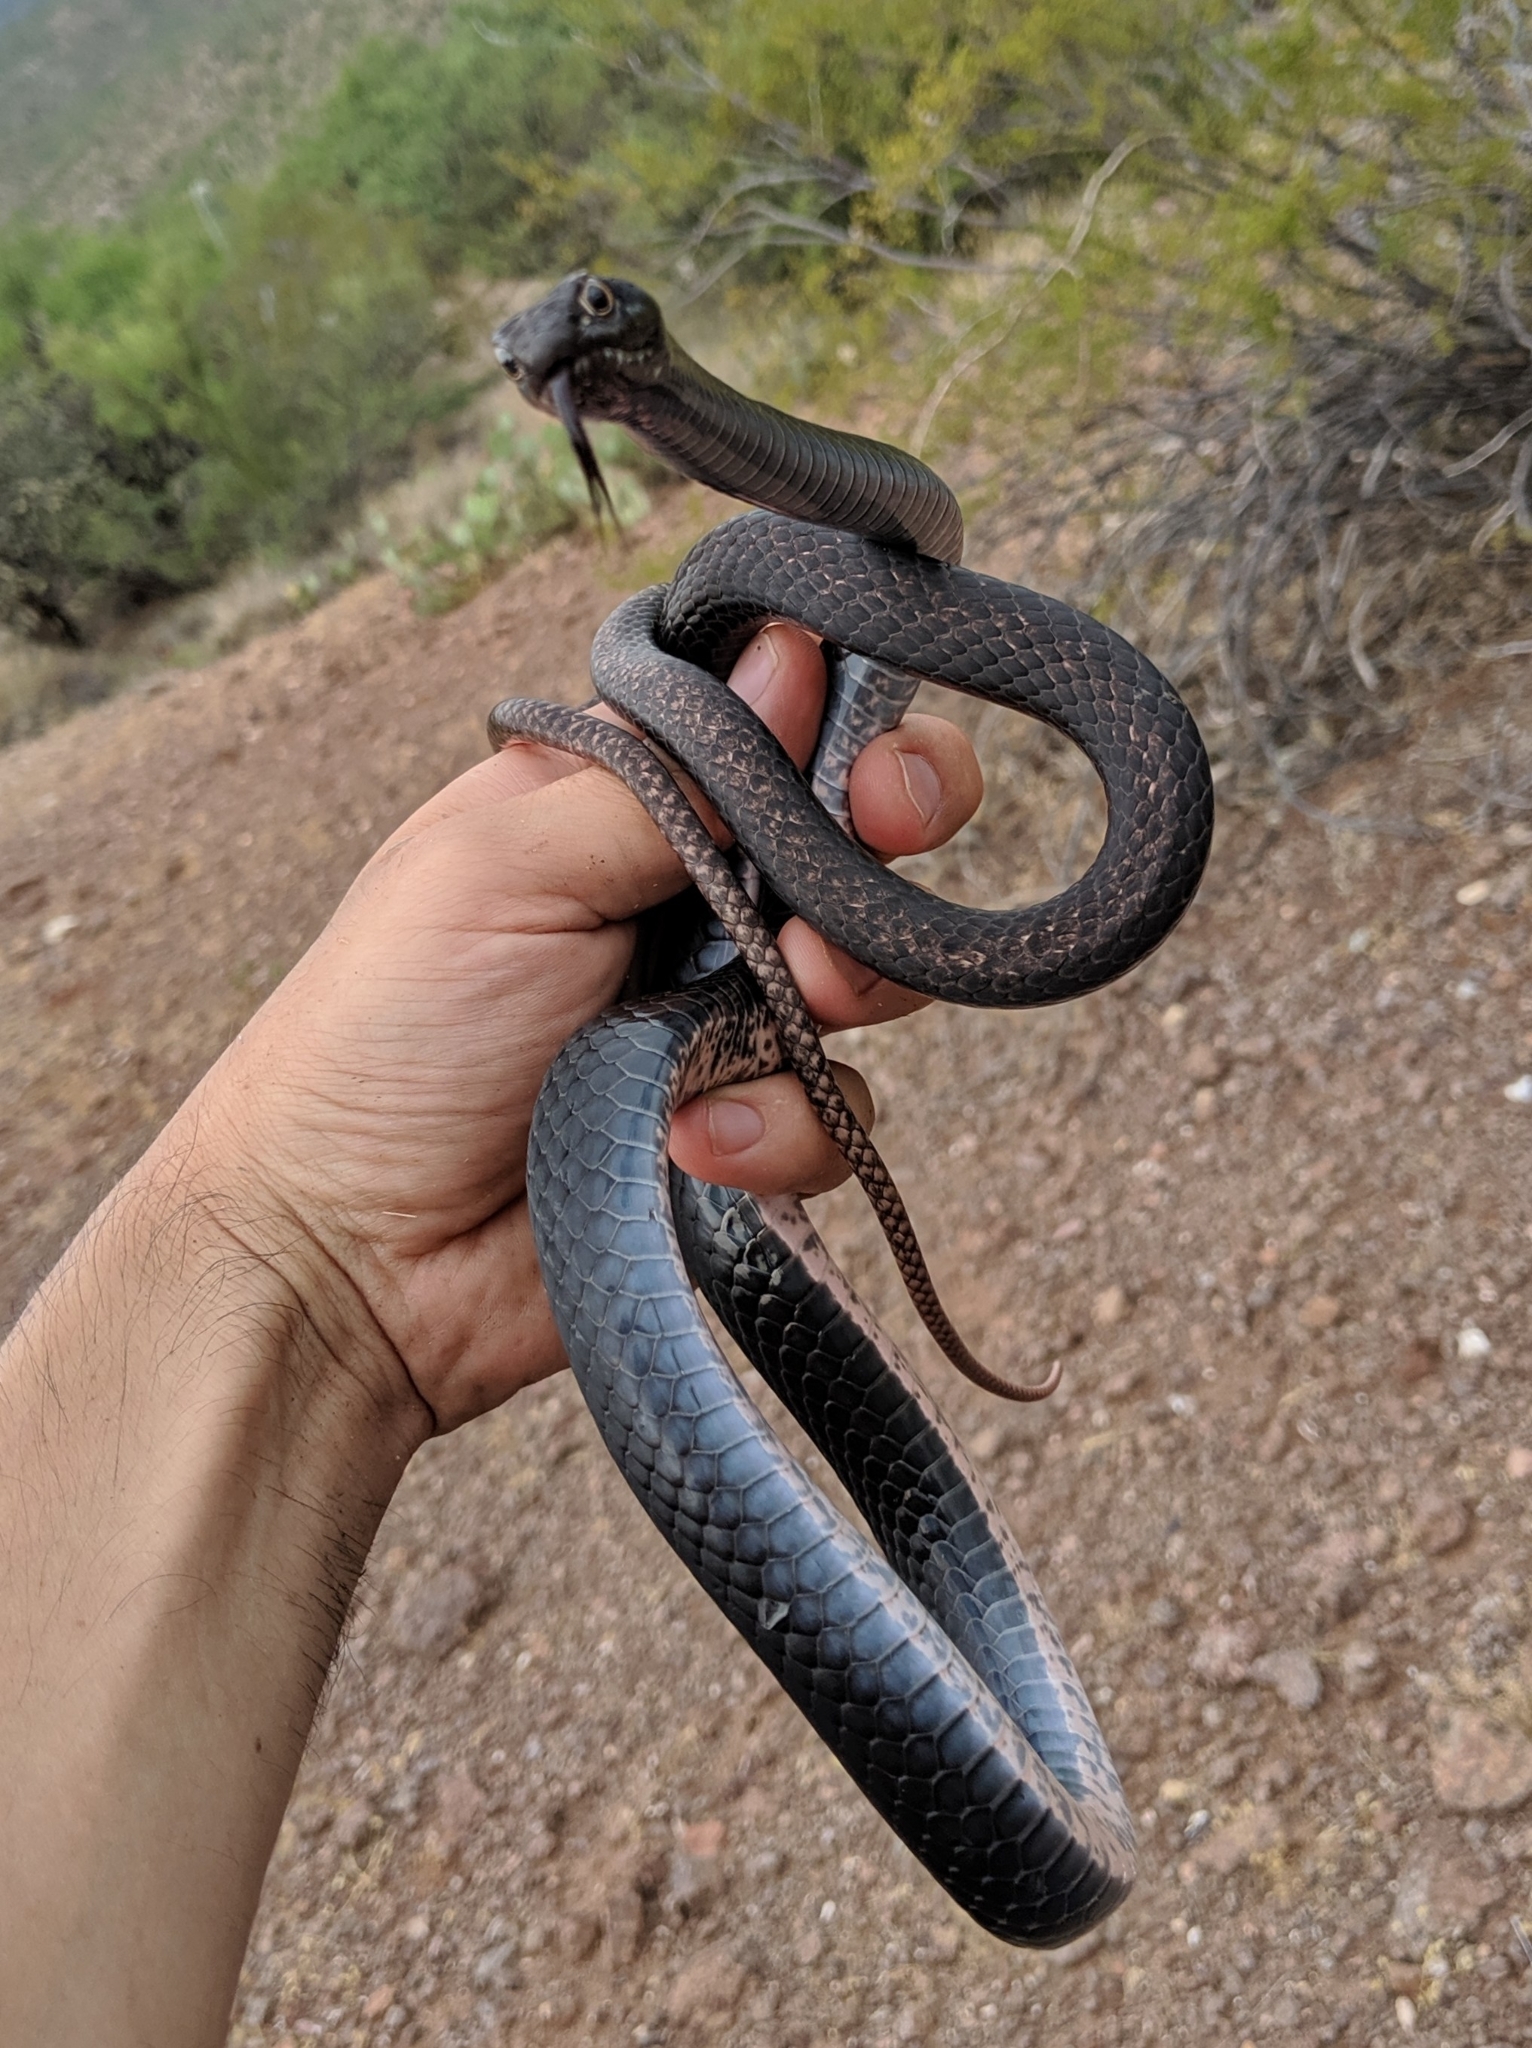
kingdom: Animalia
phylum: Chordata
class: Squamata
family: Colubridae
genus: Masticophis
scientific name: Masticophis flagellum
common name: Coachwhip
